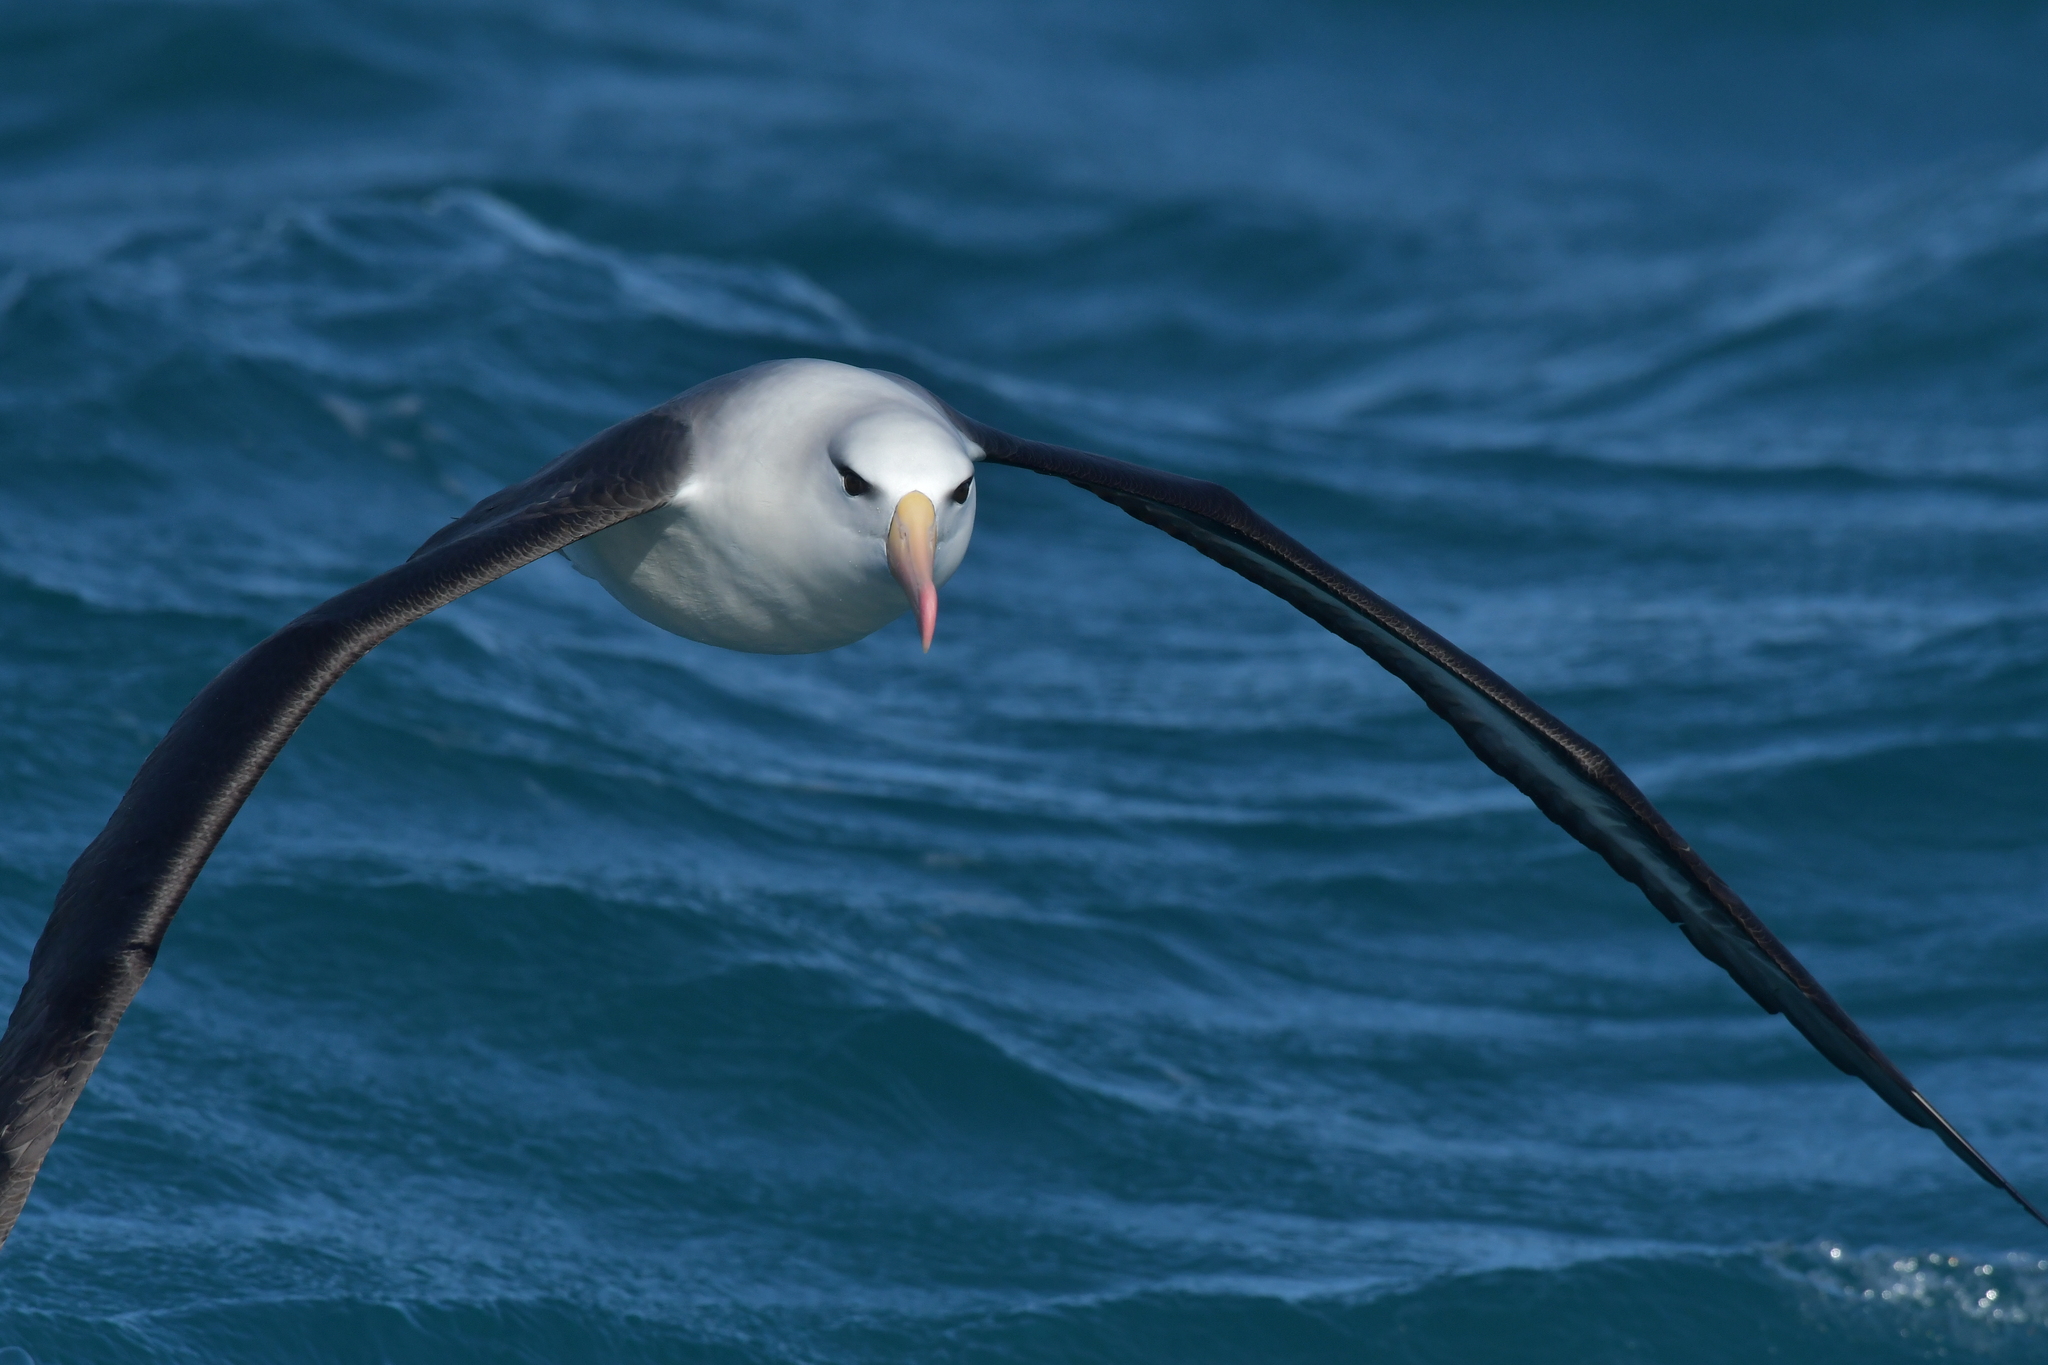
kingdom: Animalia
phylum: Chordata
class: Aves
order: Procellariiformes
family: Diomedeidae
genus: Thalassarche
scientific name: Thalassarche melanophris
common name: Black-browed albatross
